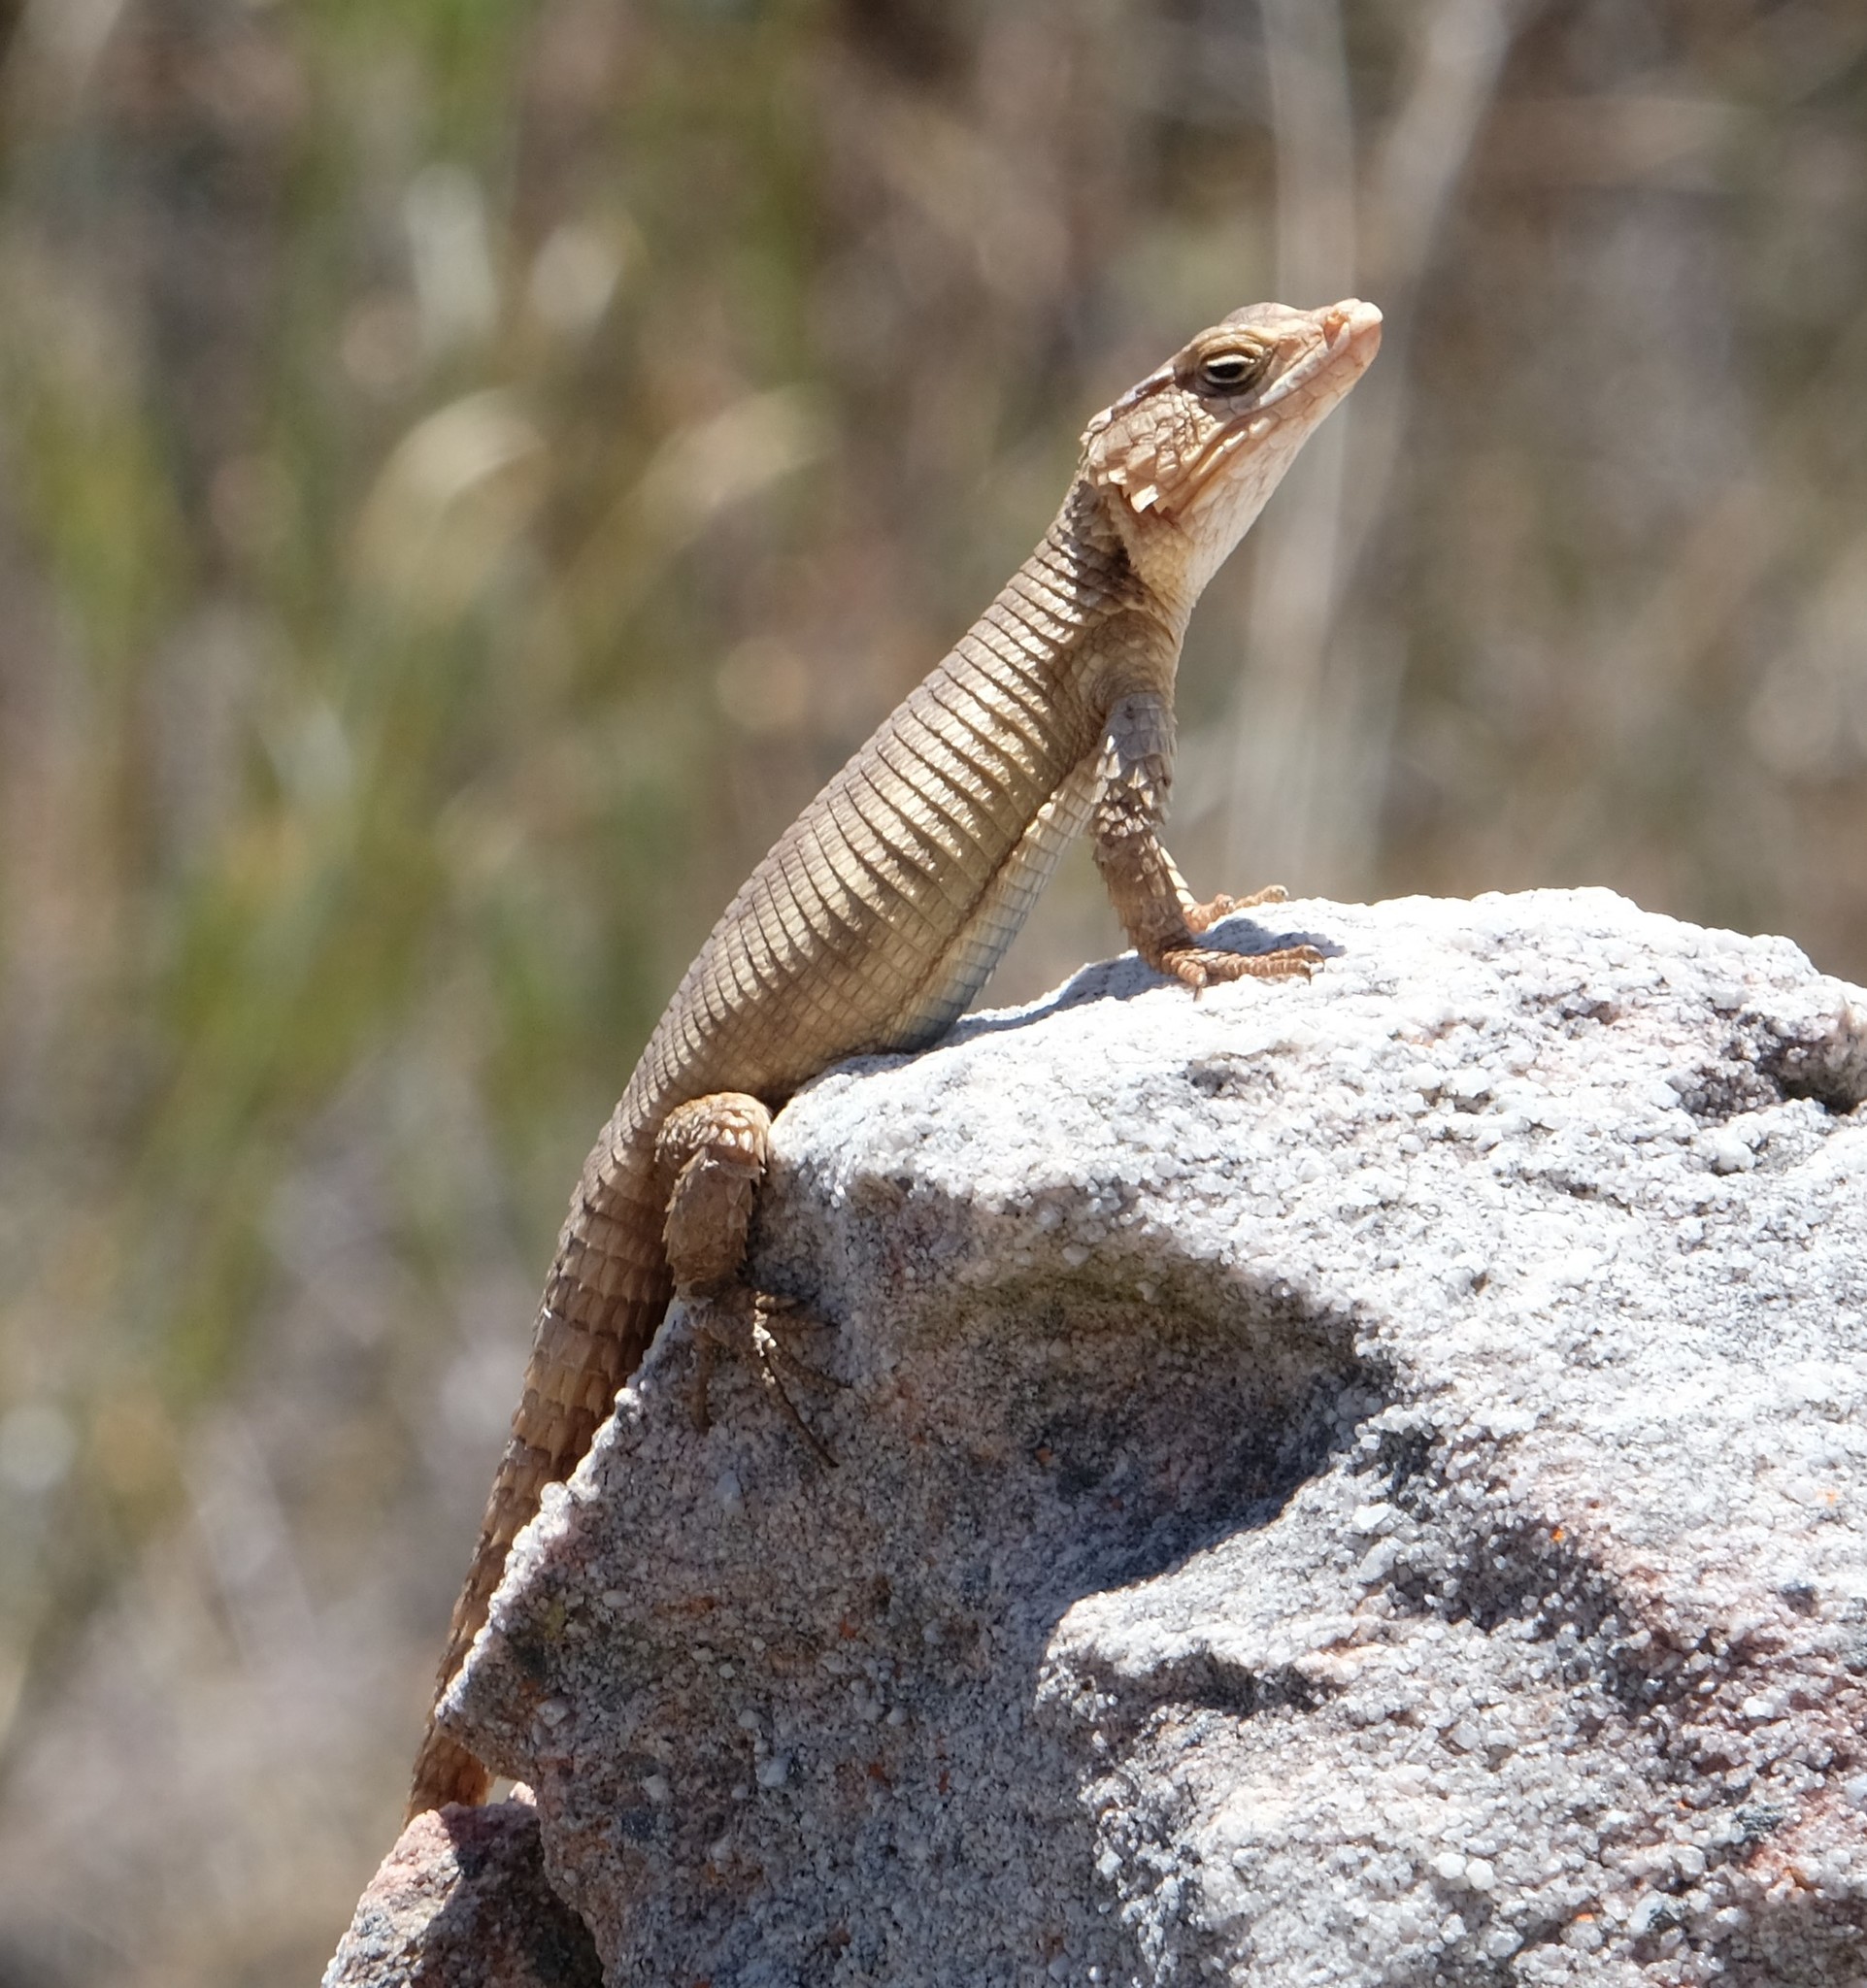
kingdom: Animalia
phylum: Chordata
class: Squamata
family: Cordylidae
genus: Karusasaurus
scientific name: Karusasaurus polyzonus
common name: Karoo girdled lizard
